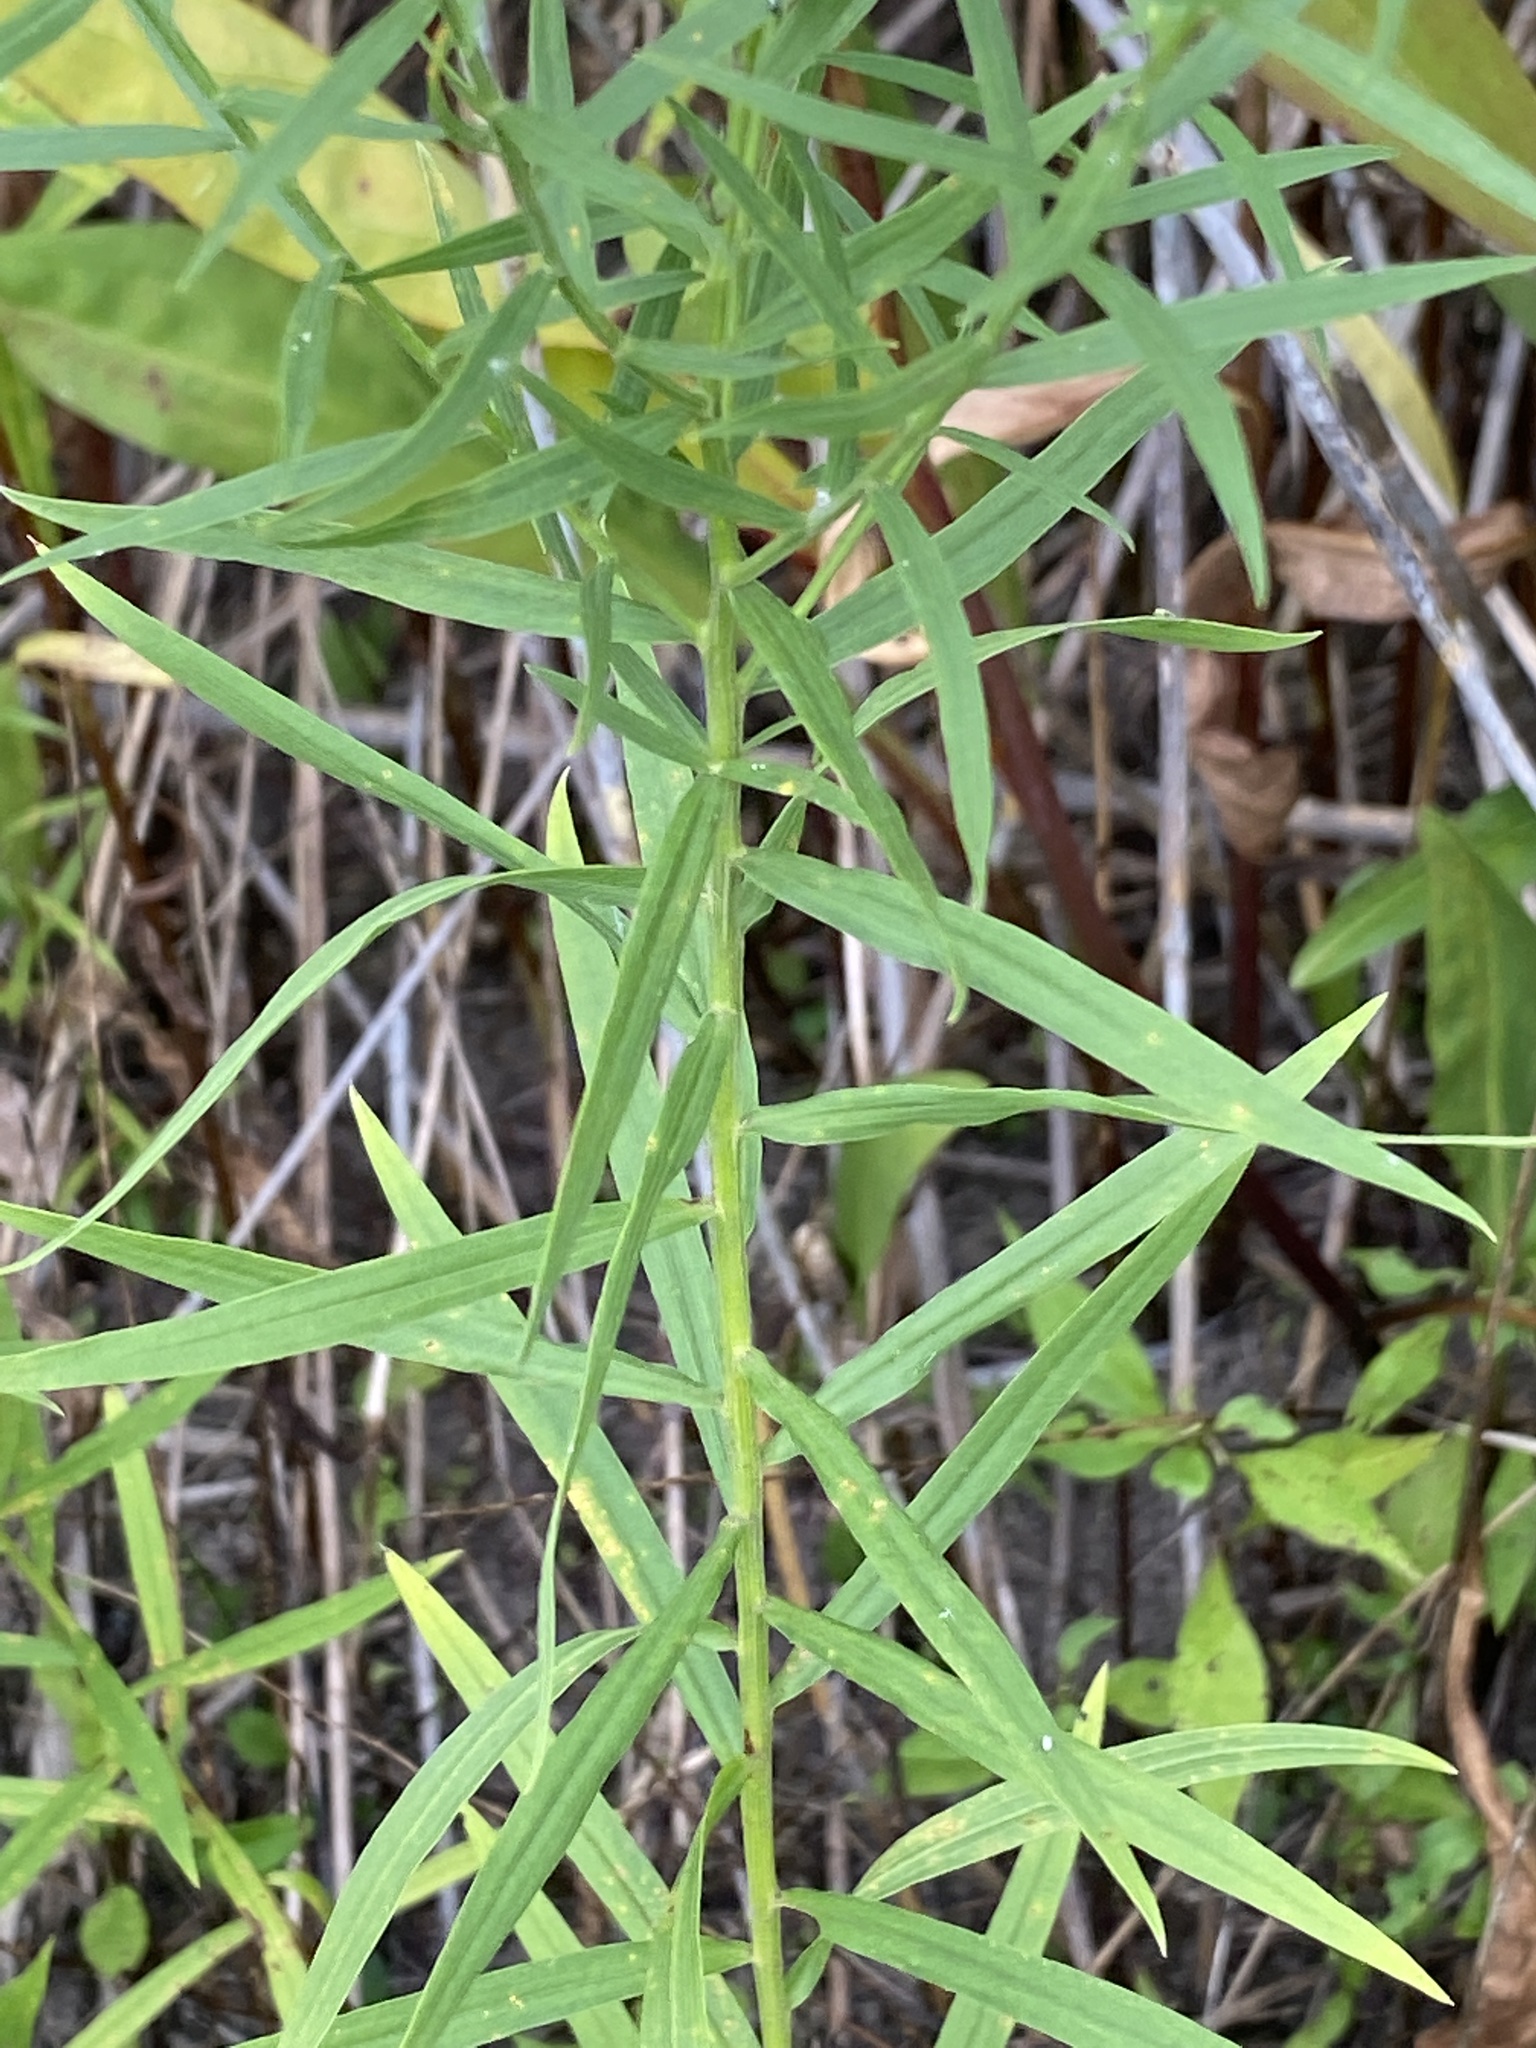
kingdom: Plantae
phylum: Tracheophyta
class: Magnoliopsida
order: Asterales
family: Asteraceae
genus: Euthamia
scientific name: Euthamia graminifolia
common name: Common goldentop
